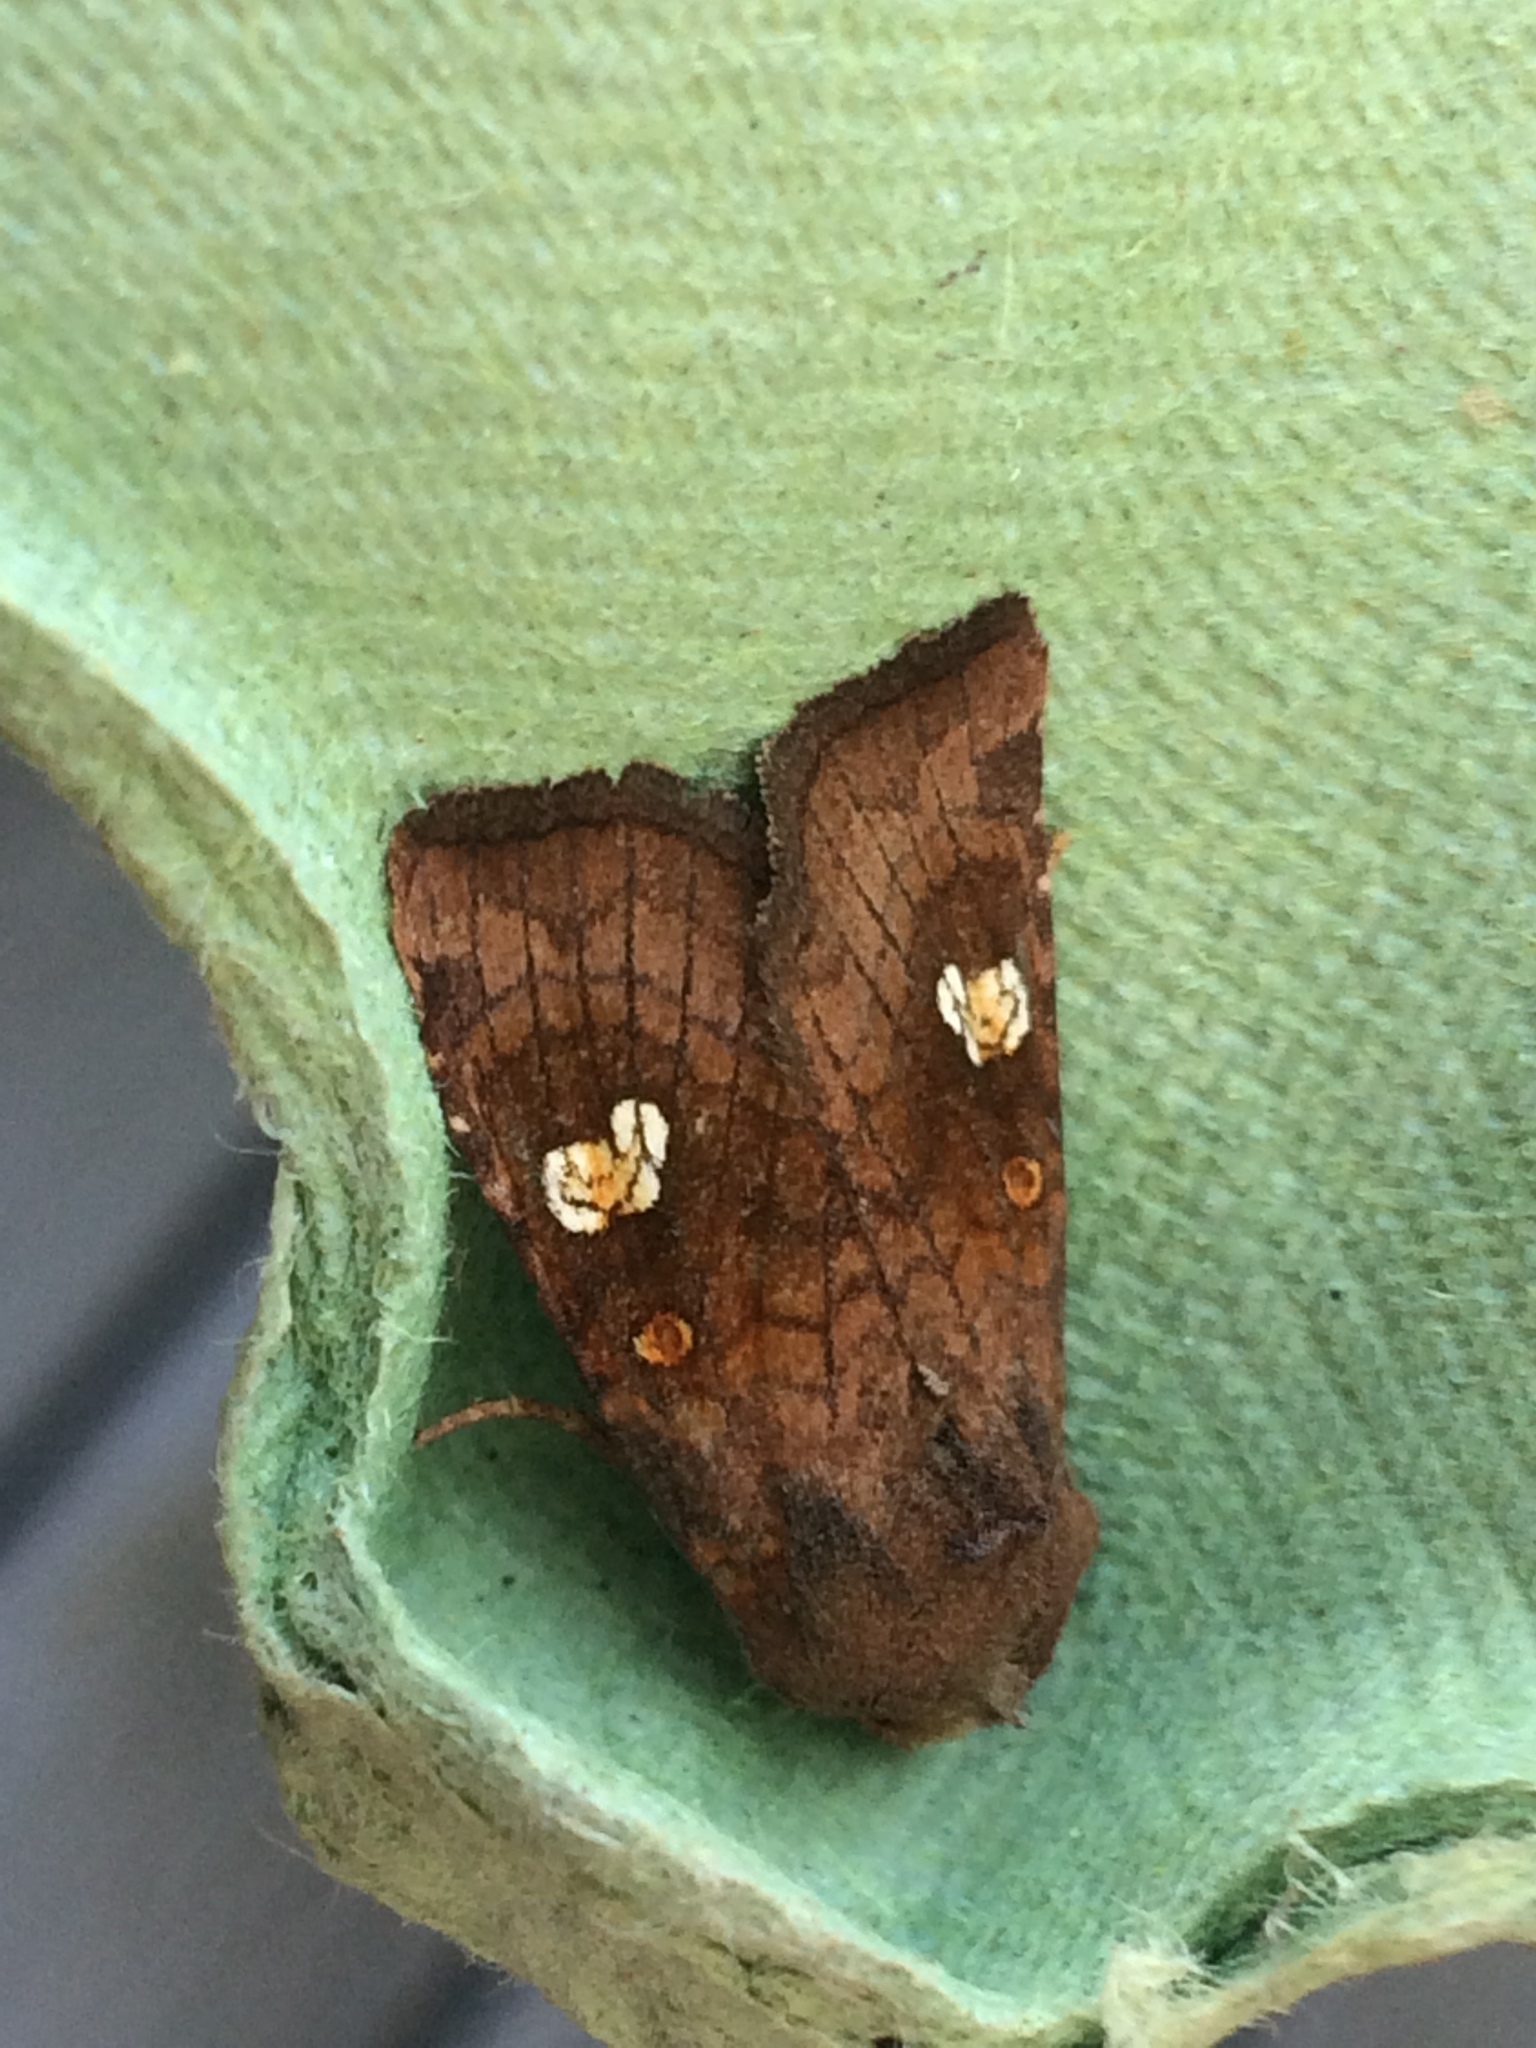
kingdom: Animalia
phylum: Arthropoda
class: Insecta
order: Lepidoptera
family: Noctuidae
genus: Amphipoea
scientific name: Amphipoea oculea
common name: Ear moth
